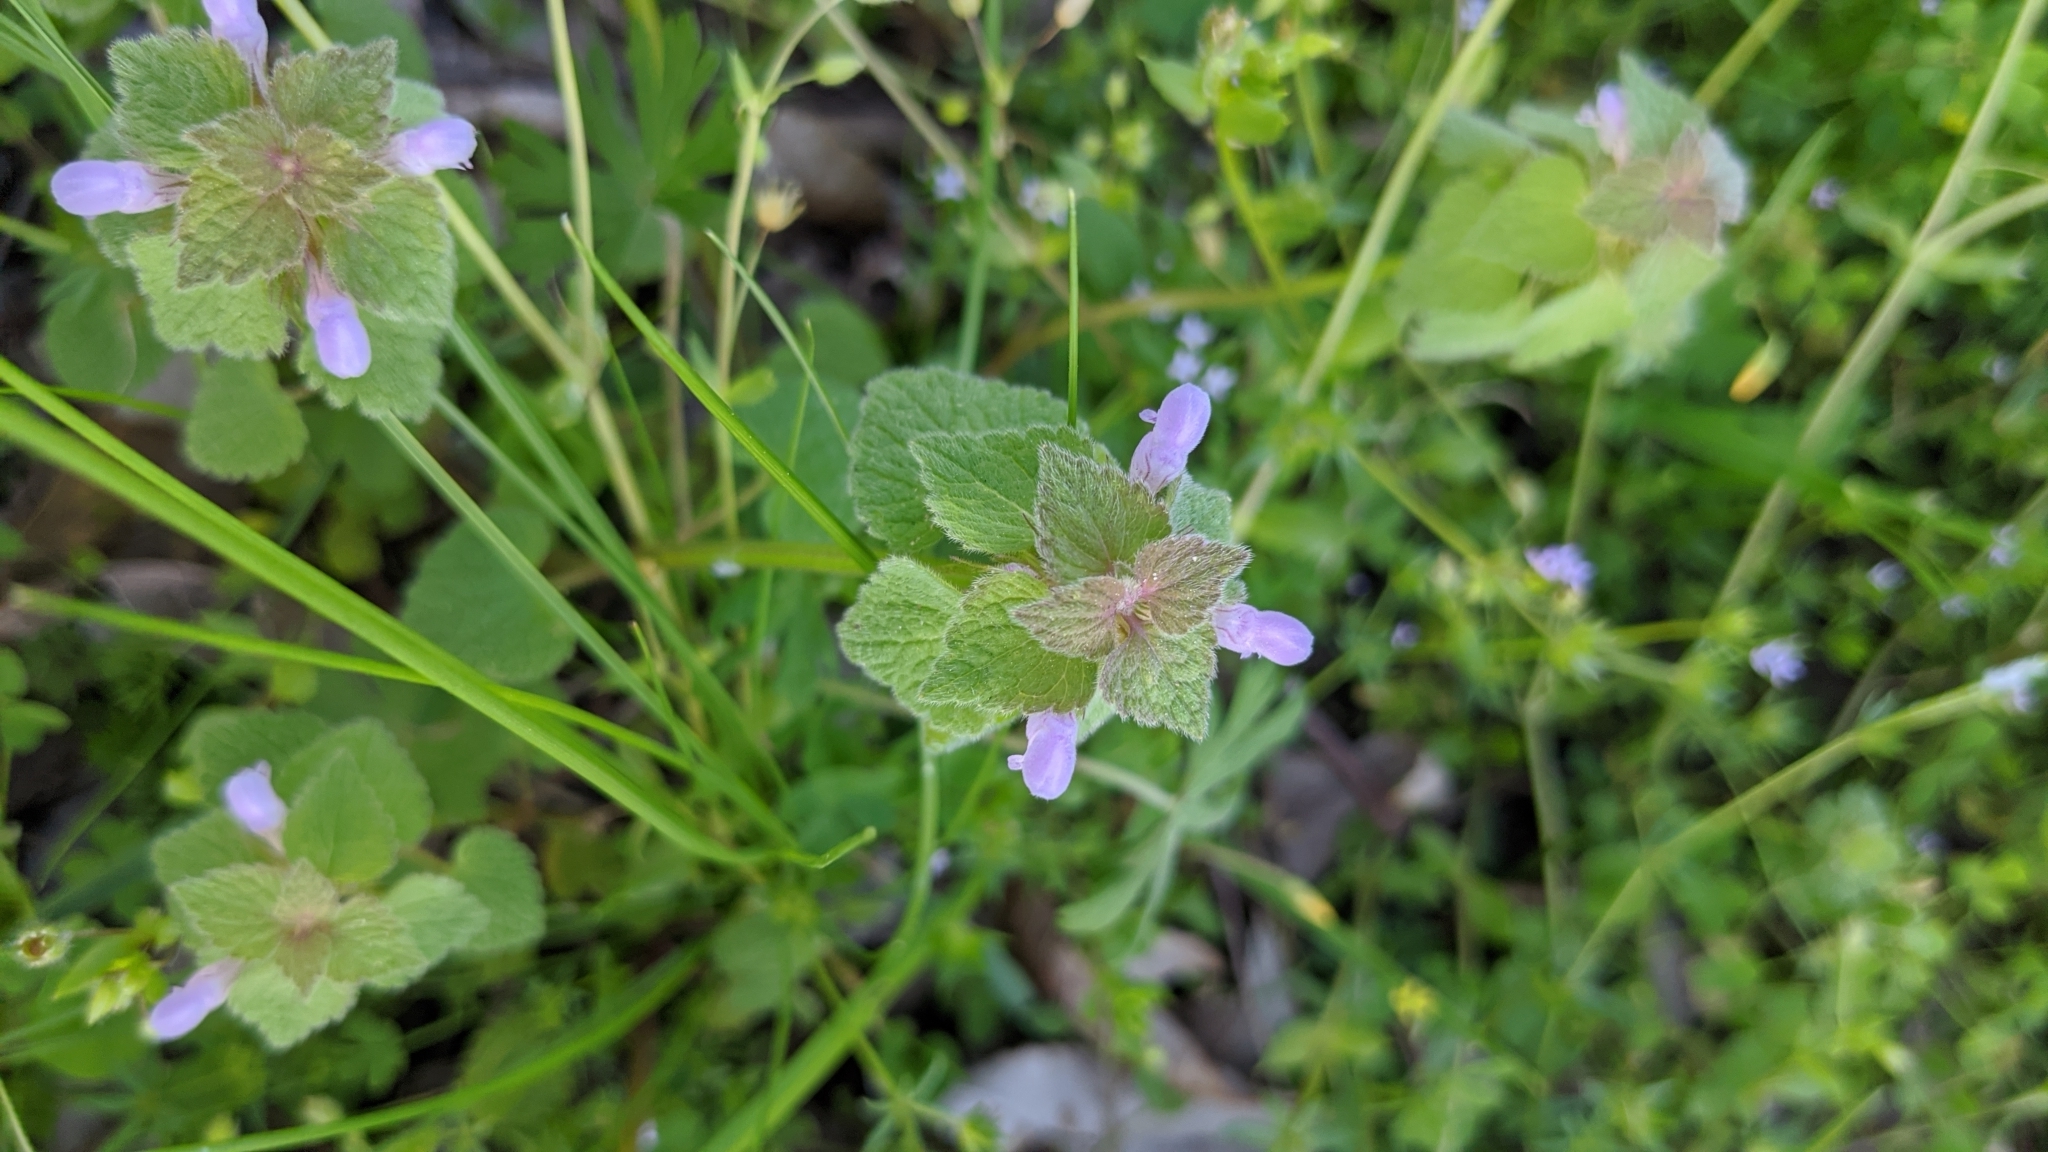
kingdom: Plantae
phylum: Tracheophyta
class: Magnoliopsida
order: Lamiales
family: Lamiaceae
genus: Lamium
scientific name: Lamium purpureum
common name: Red dead-nettle
